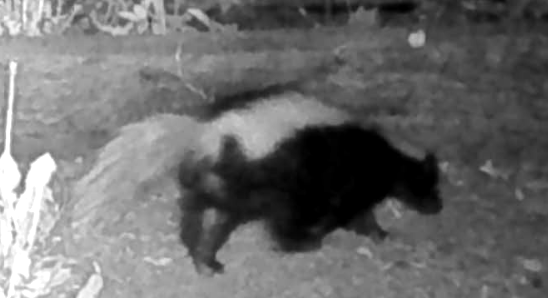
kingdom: Animalia
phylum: Chordata
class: Mammalia
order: Carnivora
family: Mephitidae
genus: Mephitis
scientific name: Mephitis mephitis
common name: Striped skunk
